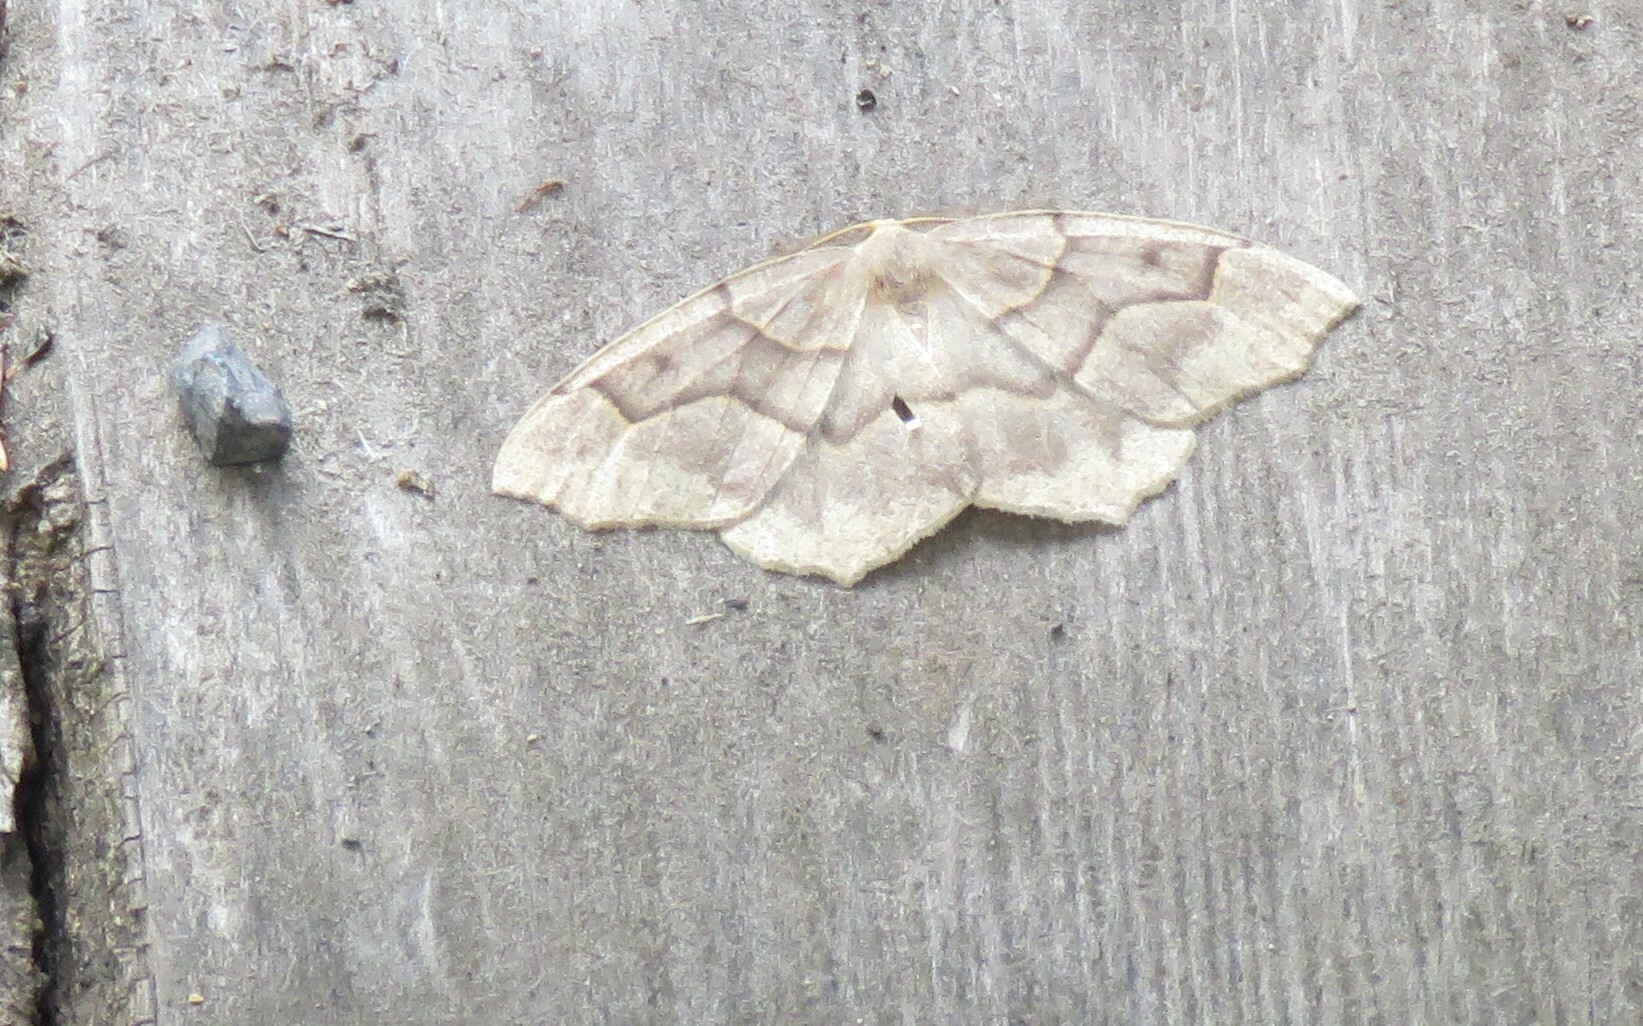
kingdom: Animalia
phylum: Arthropoda
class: Insecta
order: Lepidoptera
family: Geometridae
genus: Lambdina
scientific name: Lambdina fiscellaria
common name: Hemlock looper
